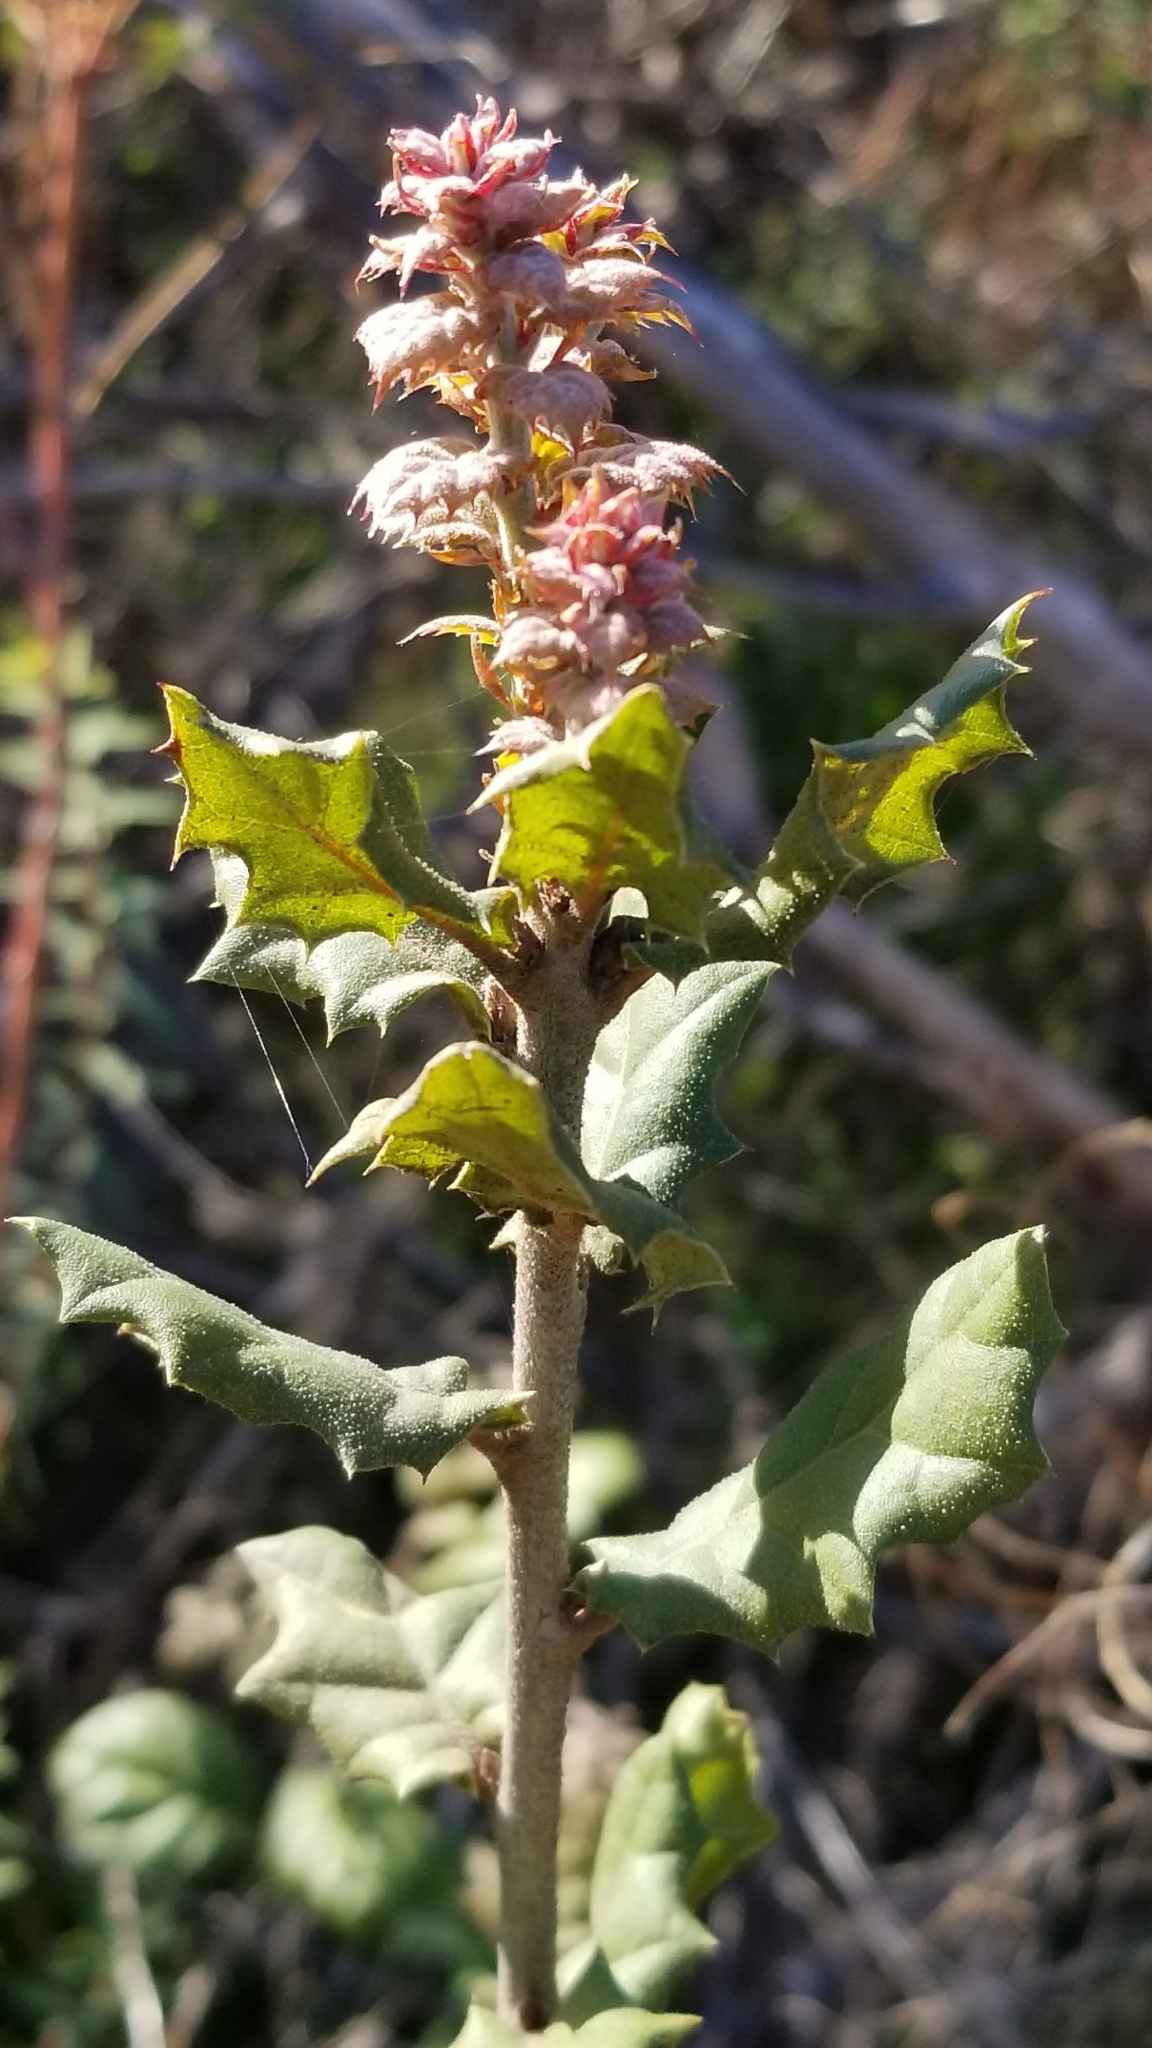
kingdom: Plantae
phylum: Tracheophyta
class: Magnoliopsida
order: Fagales
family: Fagaceae
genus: Quercus
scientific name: Quercus agrifolia
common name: California live oak
